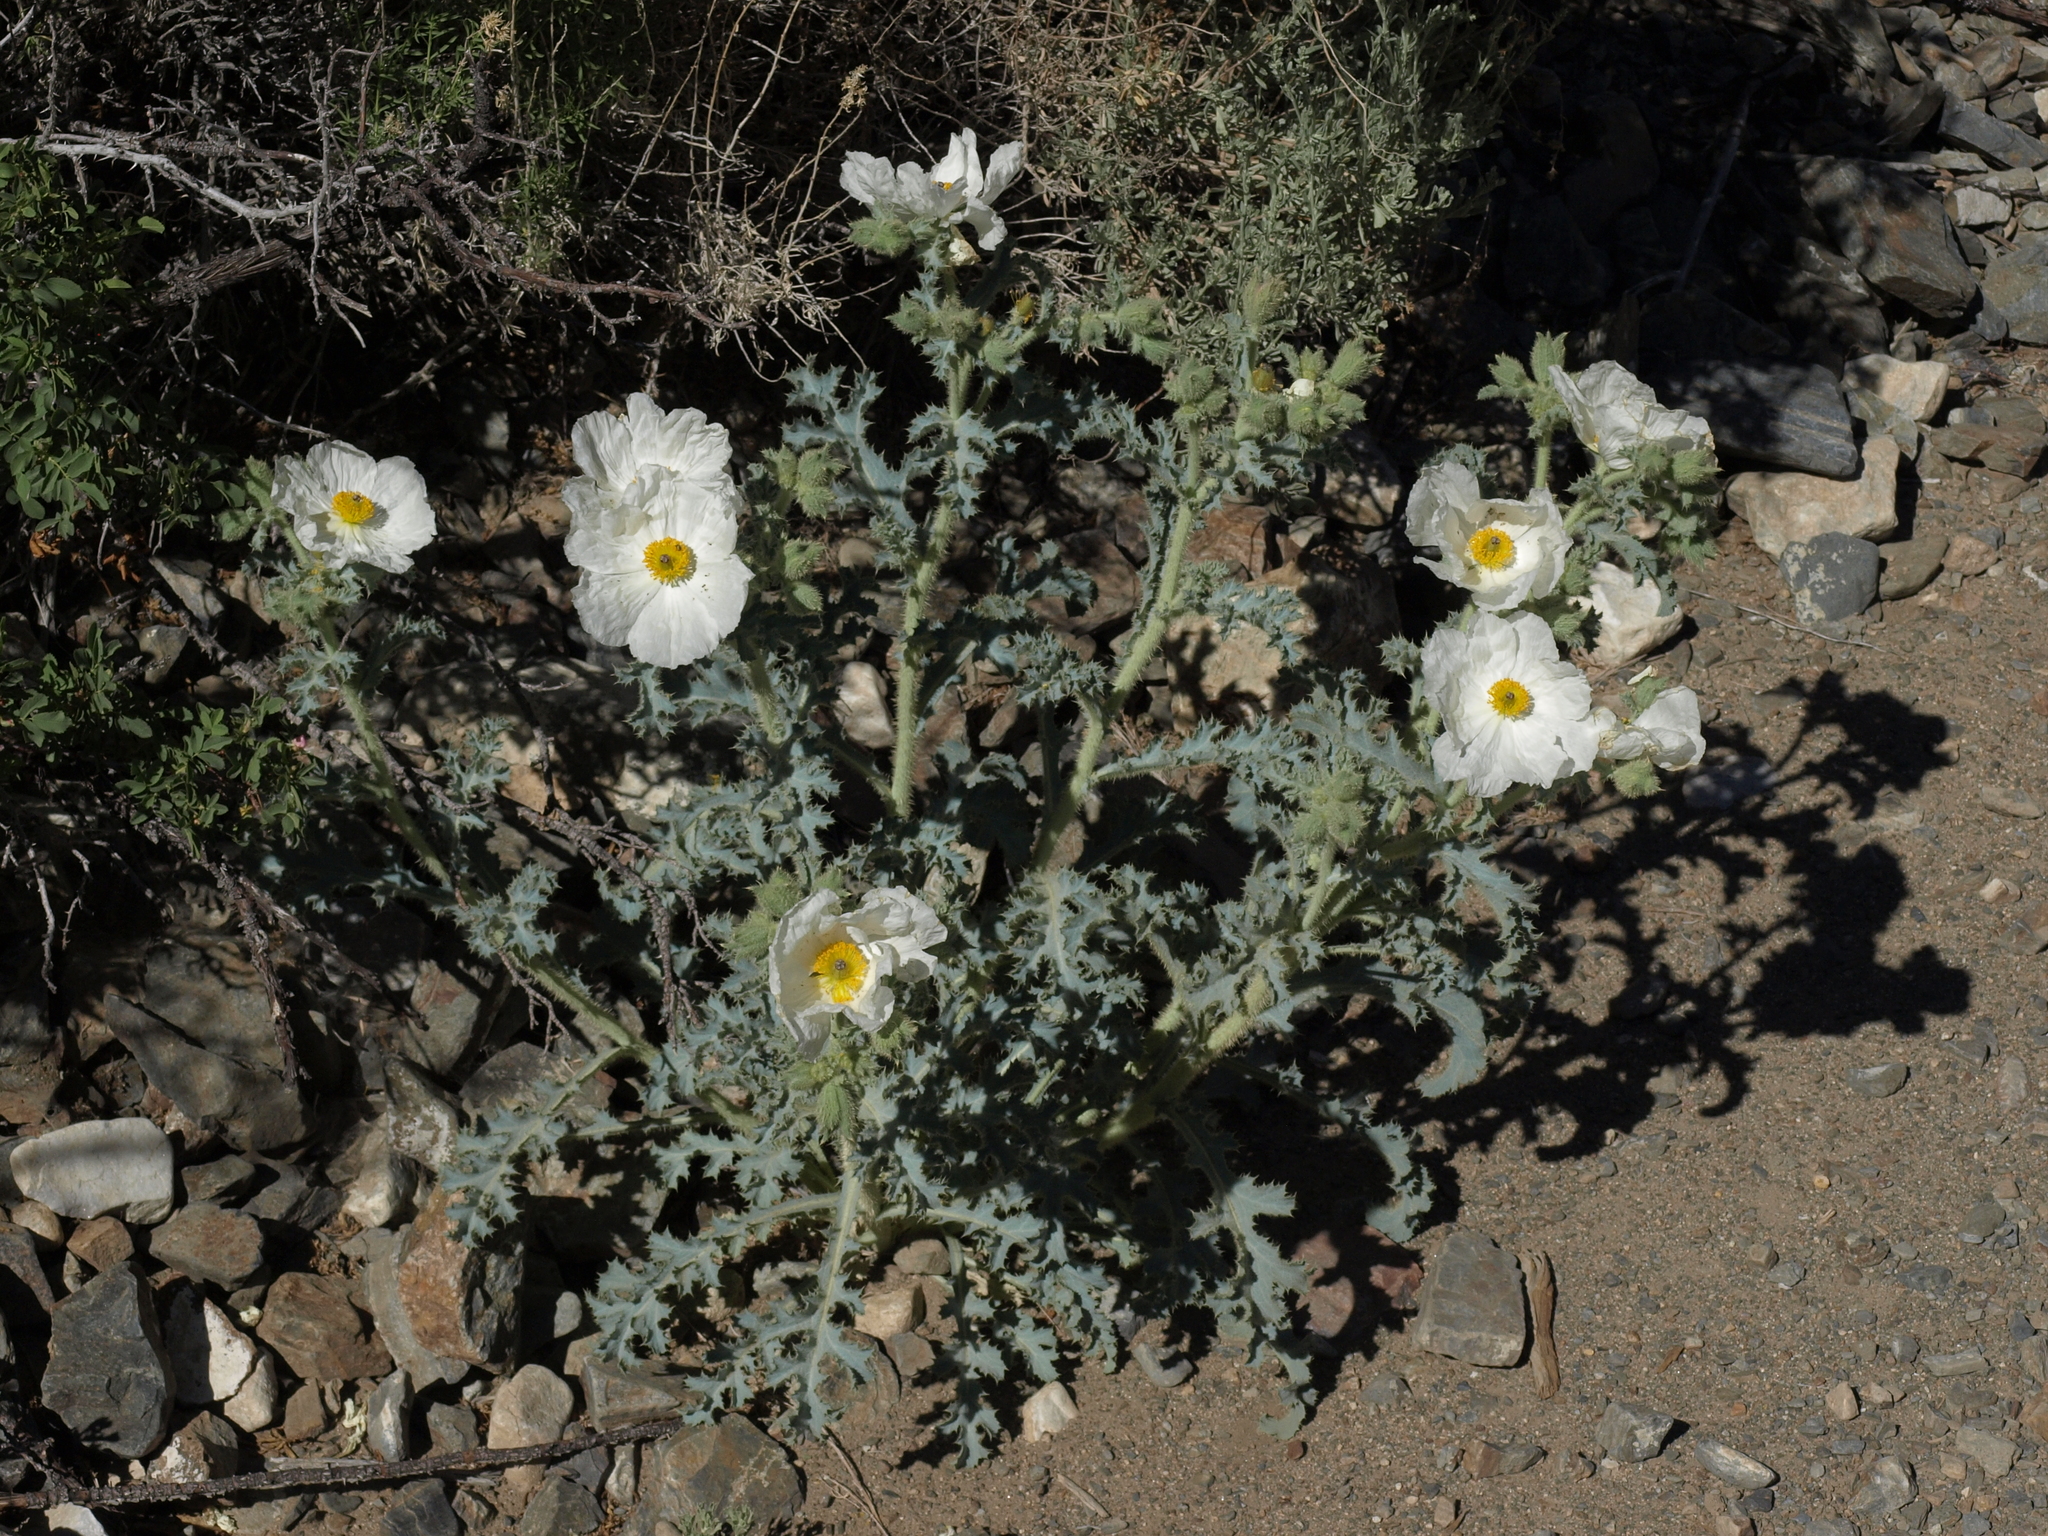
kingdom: Plantae
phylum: Tracheophyta
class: Magnoliopsida
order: Ranunculales
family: Papaveraceae
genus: Argemone
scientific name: Argemone munita
